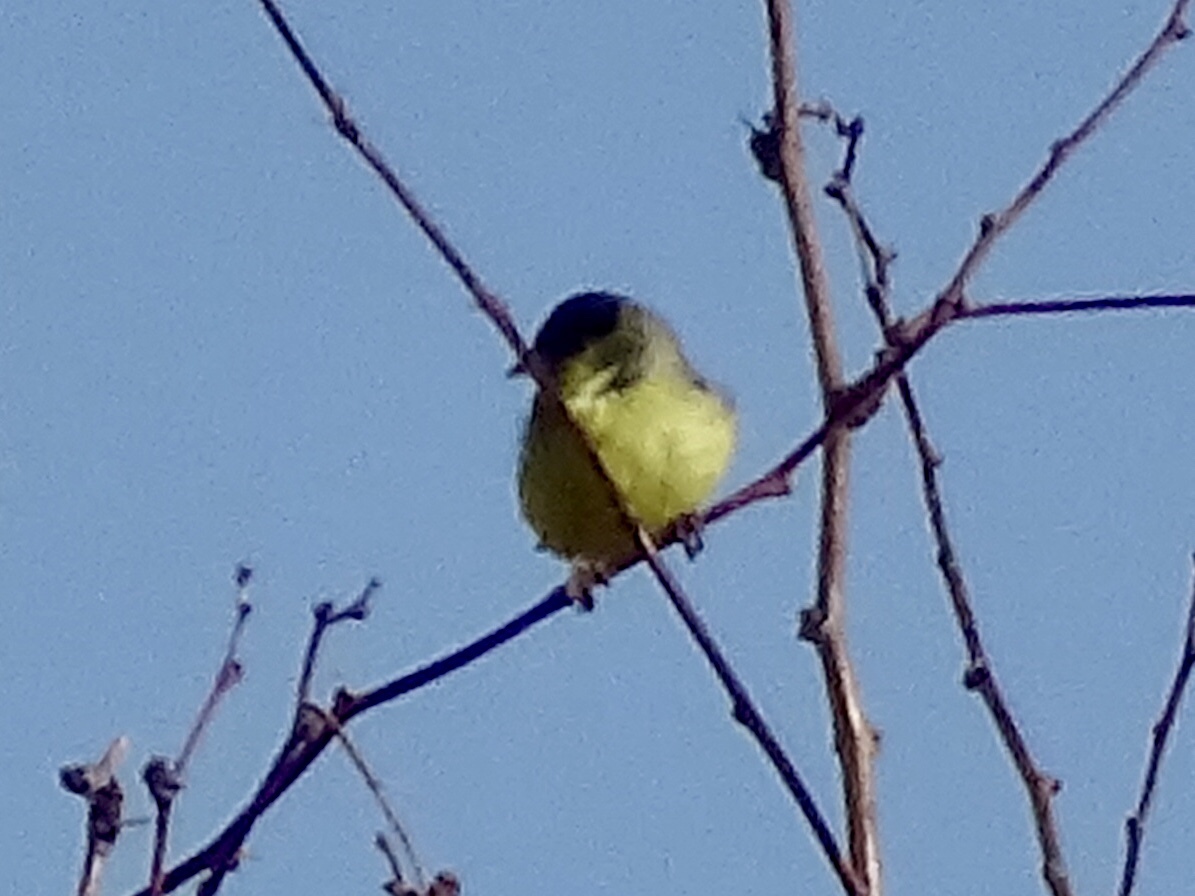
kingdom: Animalia
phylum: Chordata
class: Aves
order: Passeriformes
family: Fringillidae
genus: Spinus
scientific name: Spinus psaltria
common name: Lesser goldfinch
